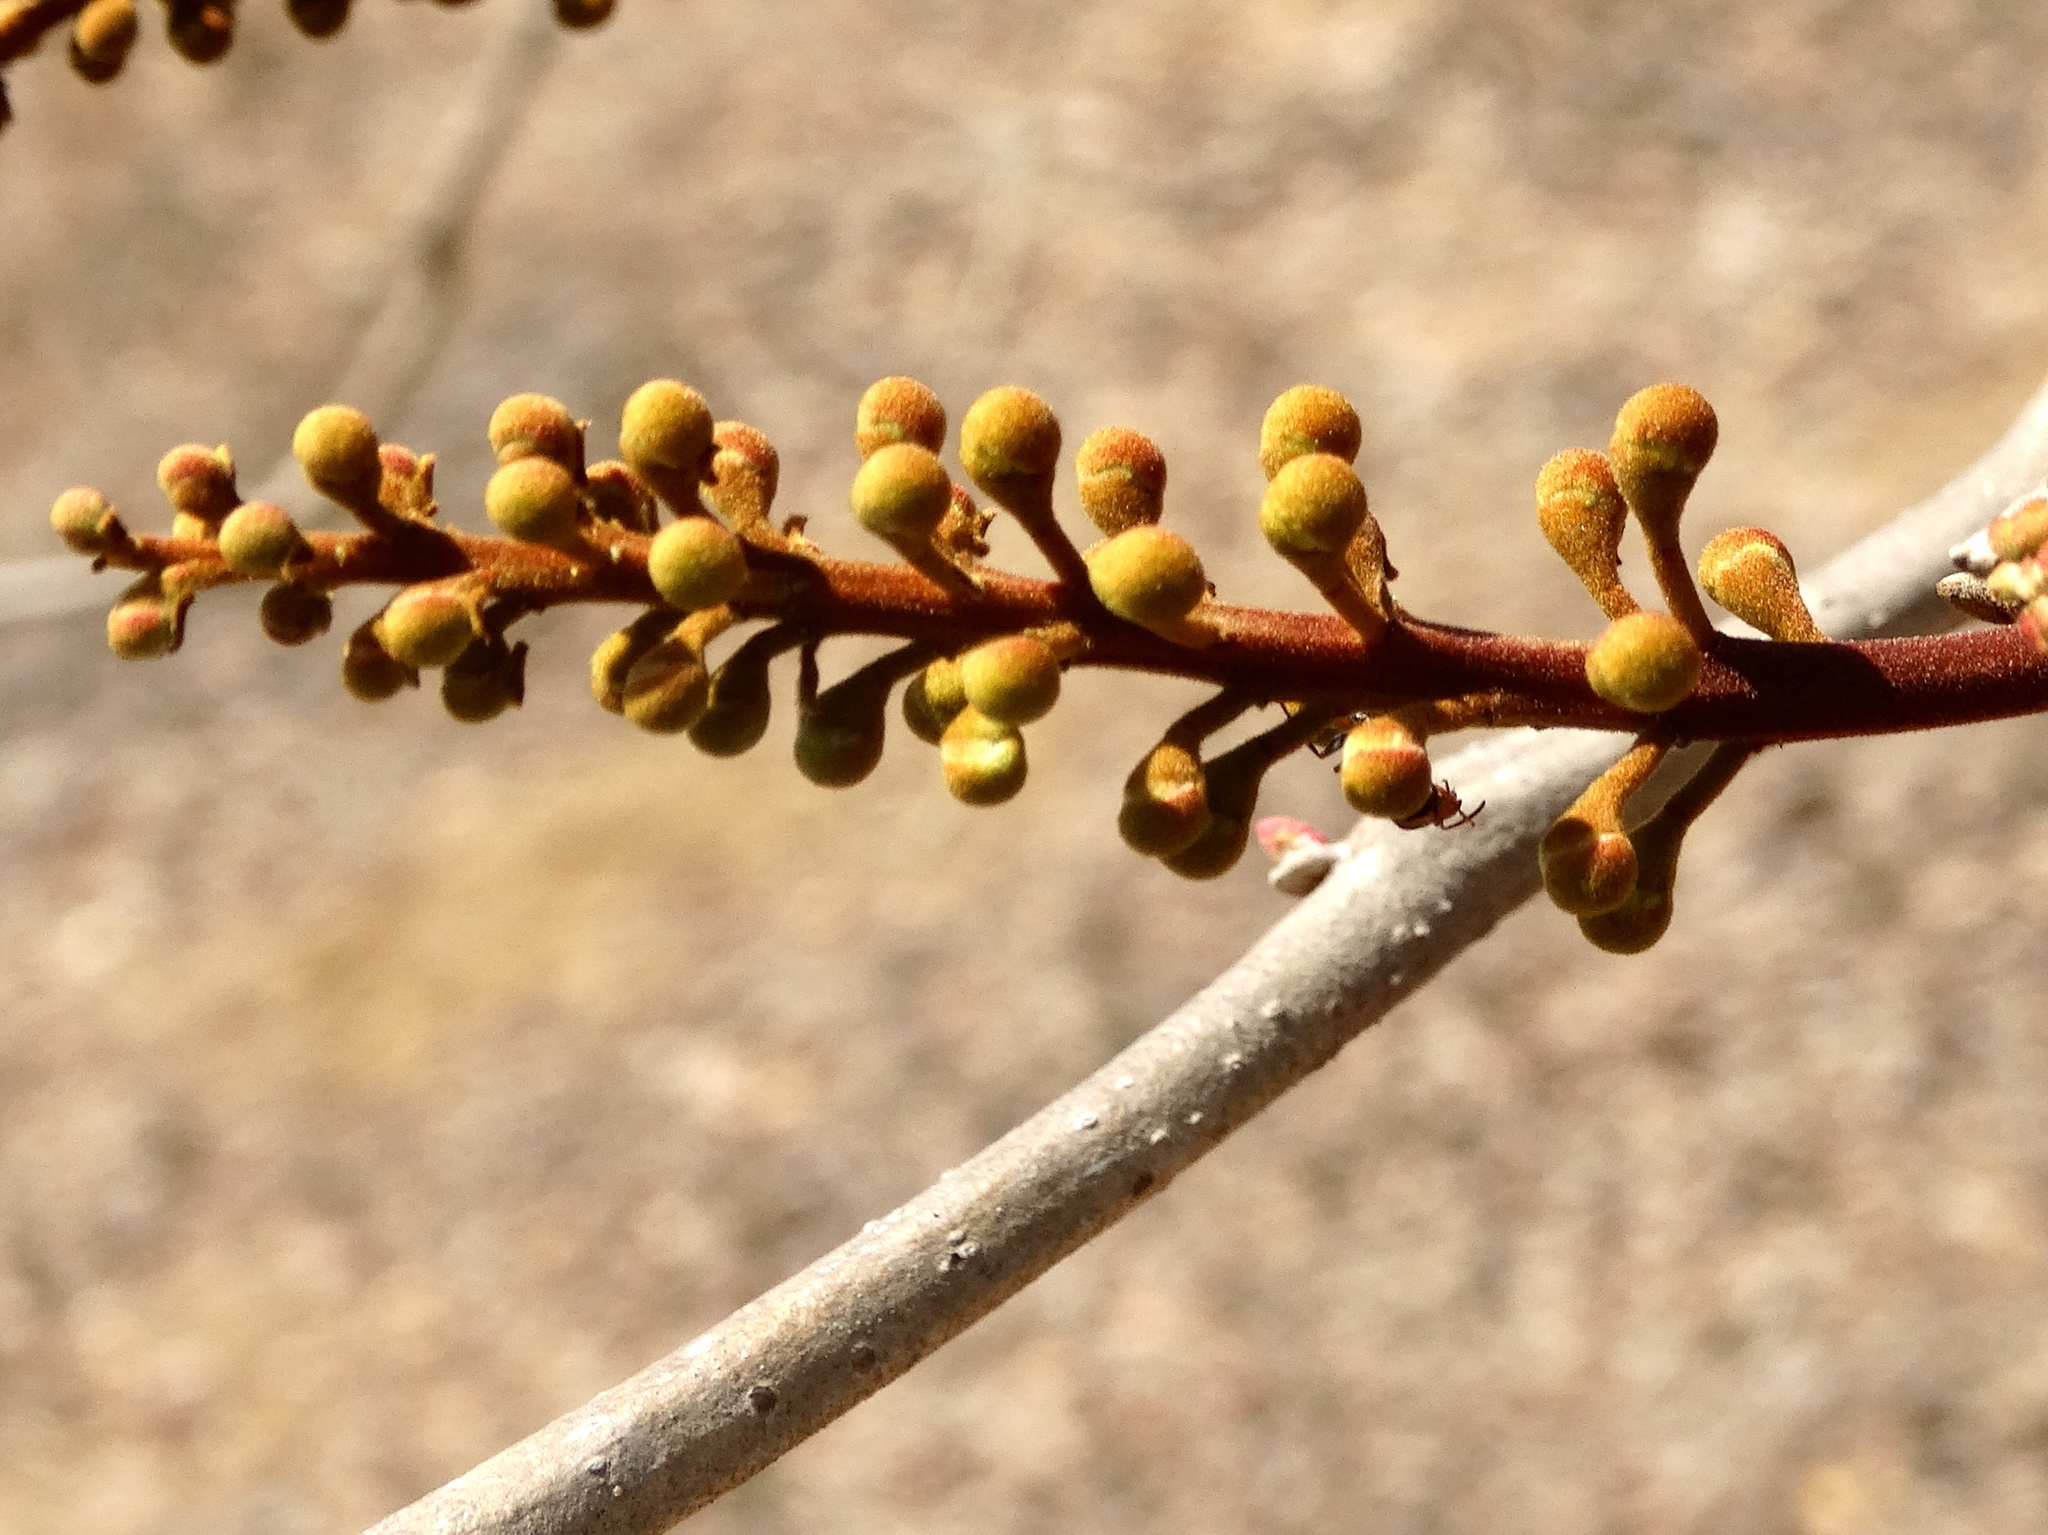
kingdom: Plantae
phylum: Tracheophyta
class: Magnoliopsida
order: Fabales
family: Fabaceae
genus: Coulteria
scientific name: Coulteria platyloba
